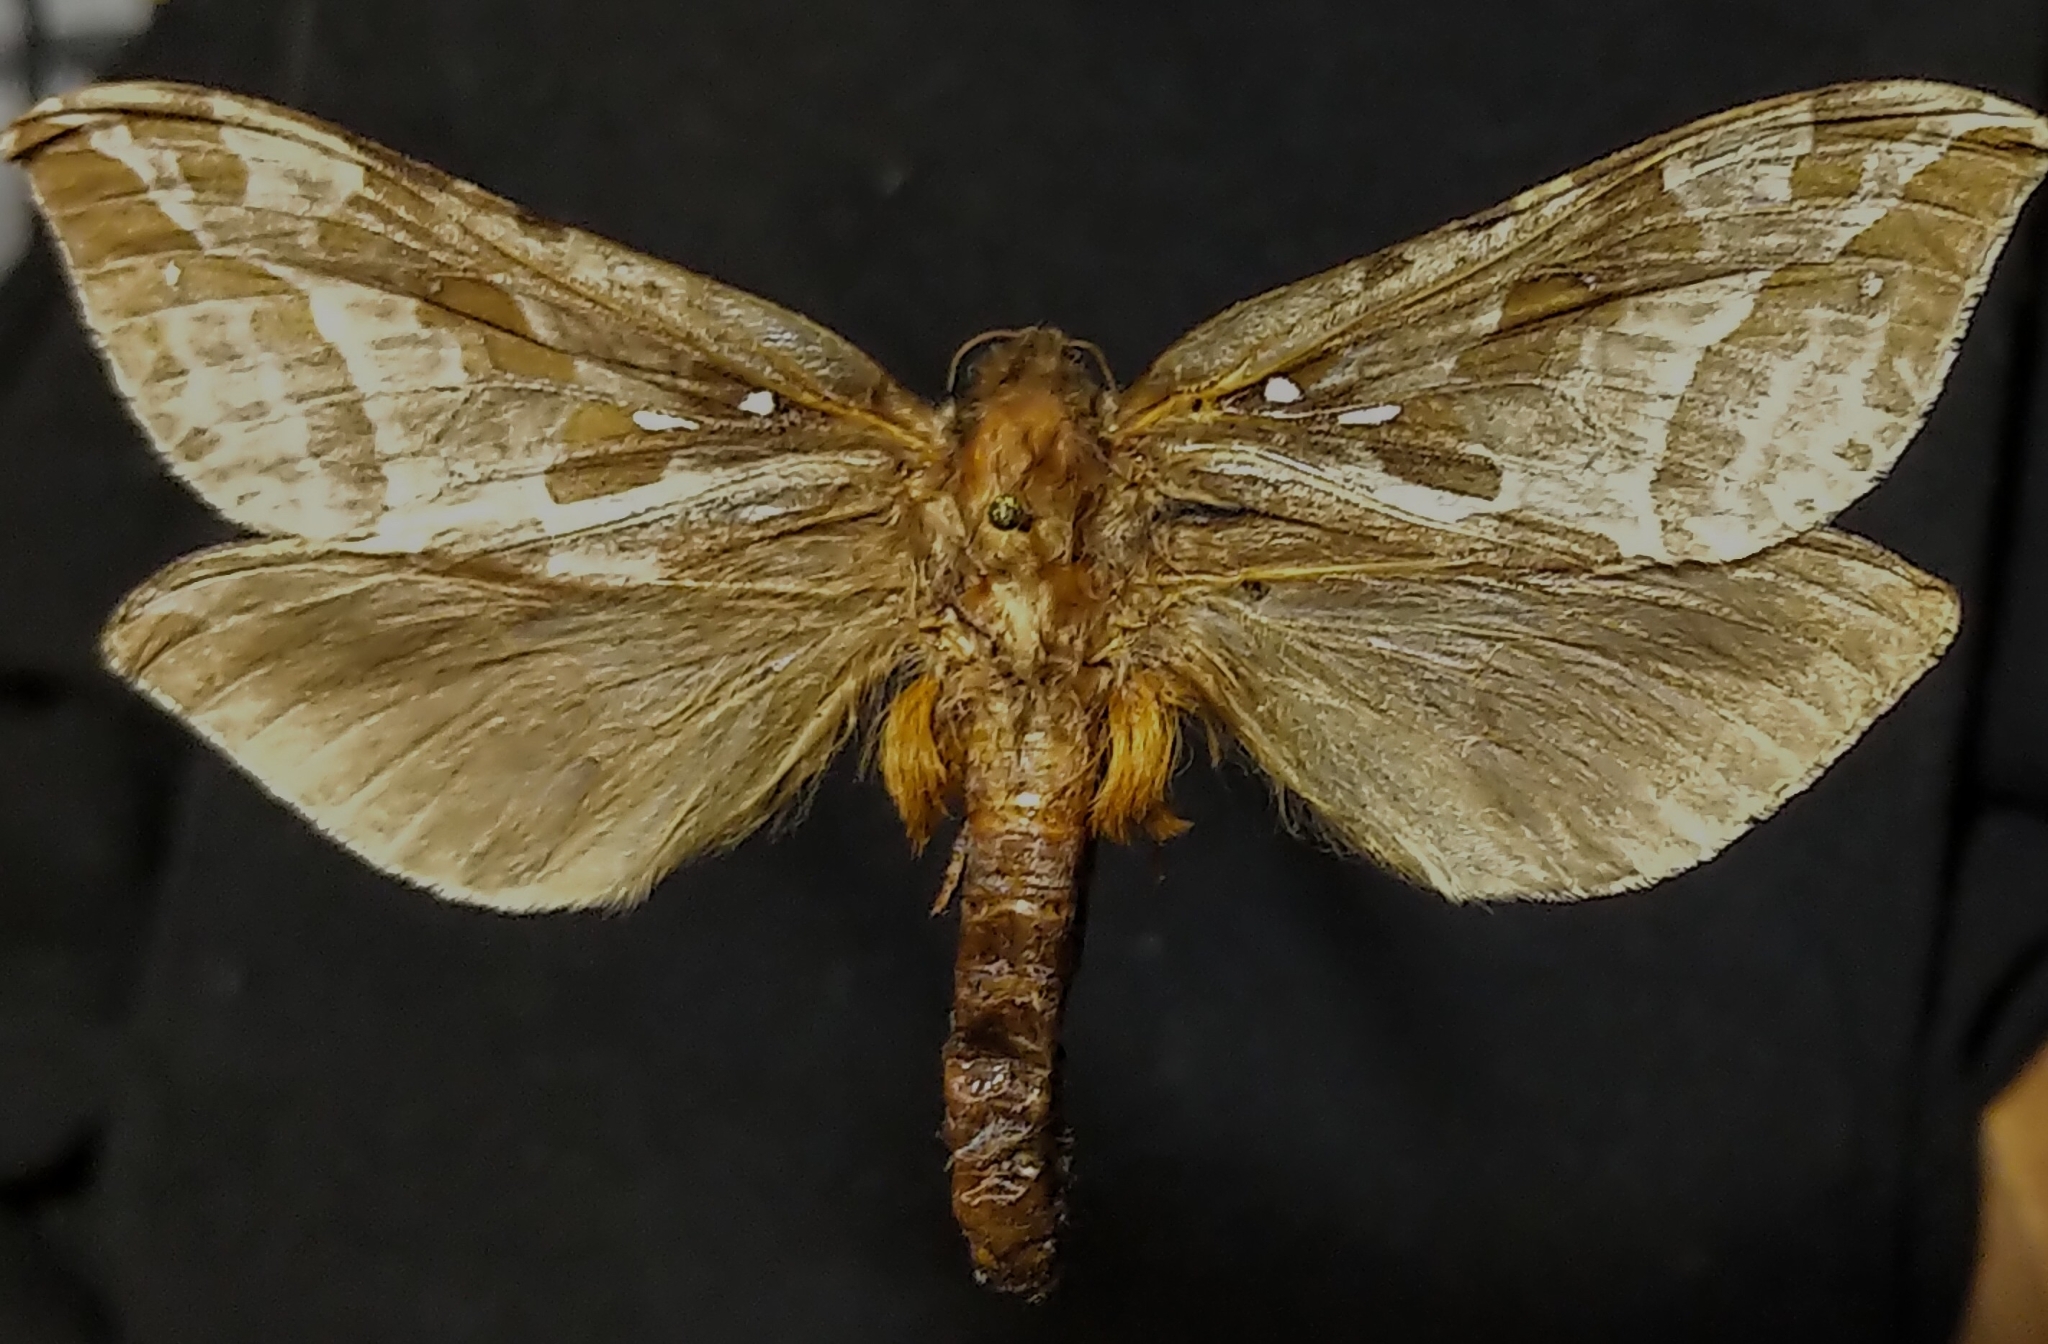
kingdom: Animalia
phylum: Arthropoda
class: Insecta
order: Lepidoptera
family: Hepialidae
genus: Sthenopis
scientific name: Sthenopis purpurascens
